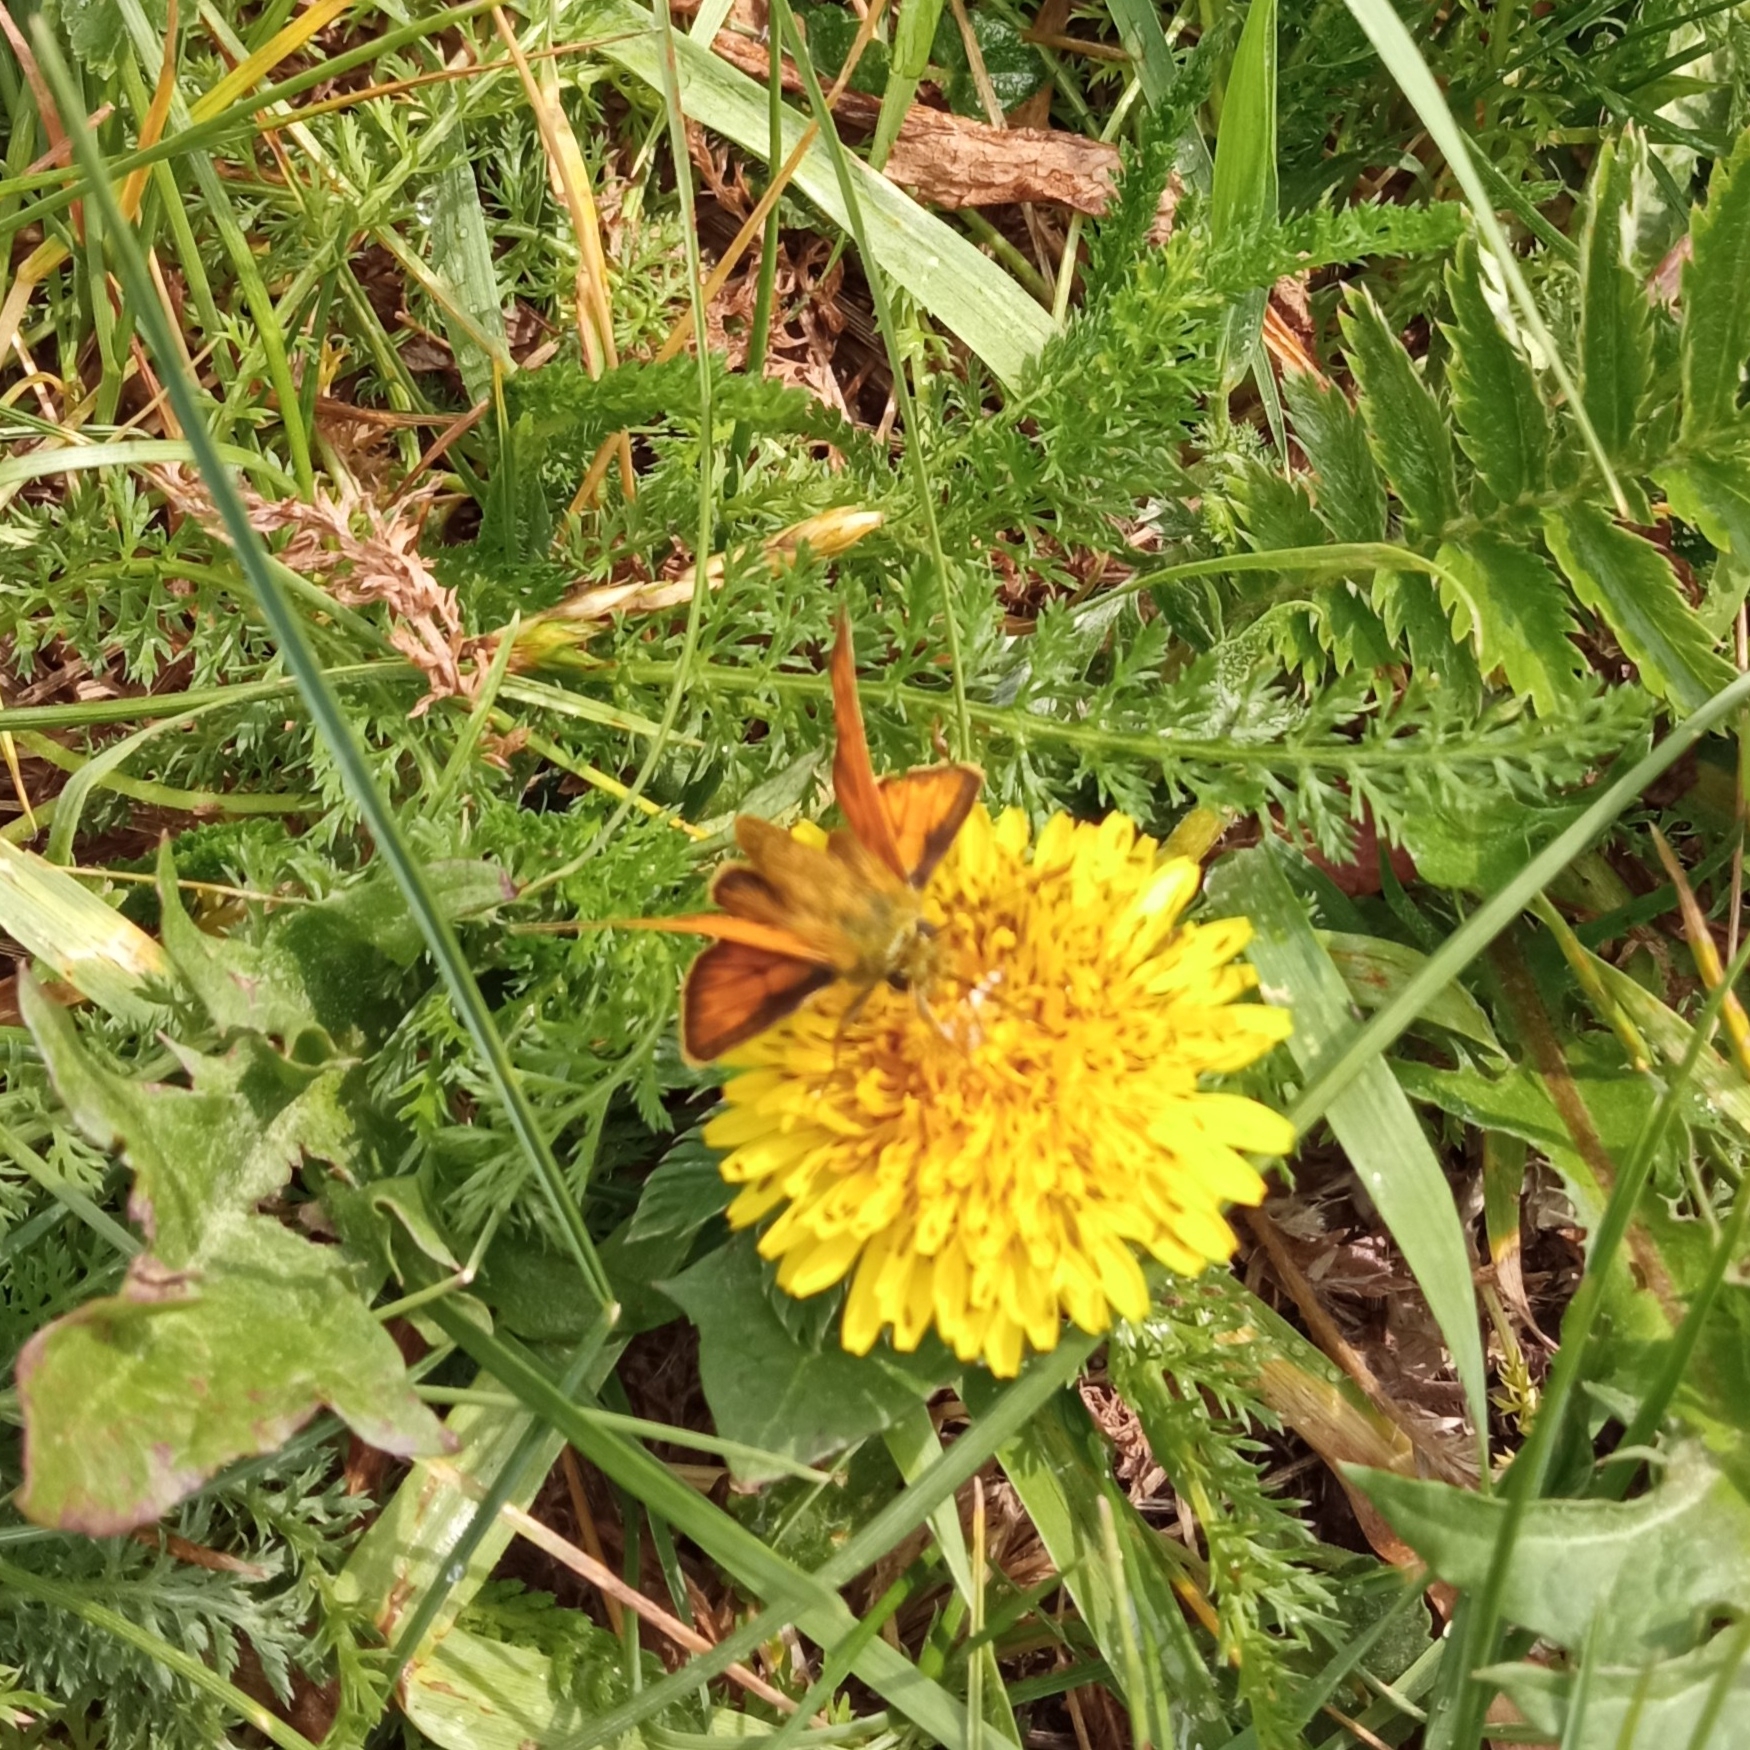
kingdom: Animalia
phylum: Arthropoda
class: Insecta
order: Lepidoptera
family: Hesperiidae
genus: Ochlodes
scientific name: Ochlodes venata
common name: Large skipper
